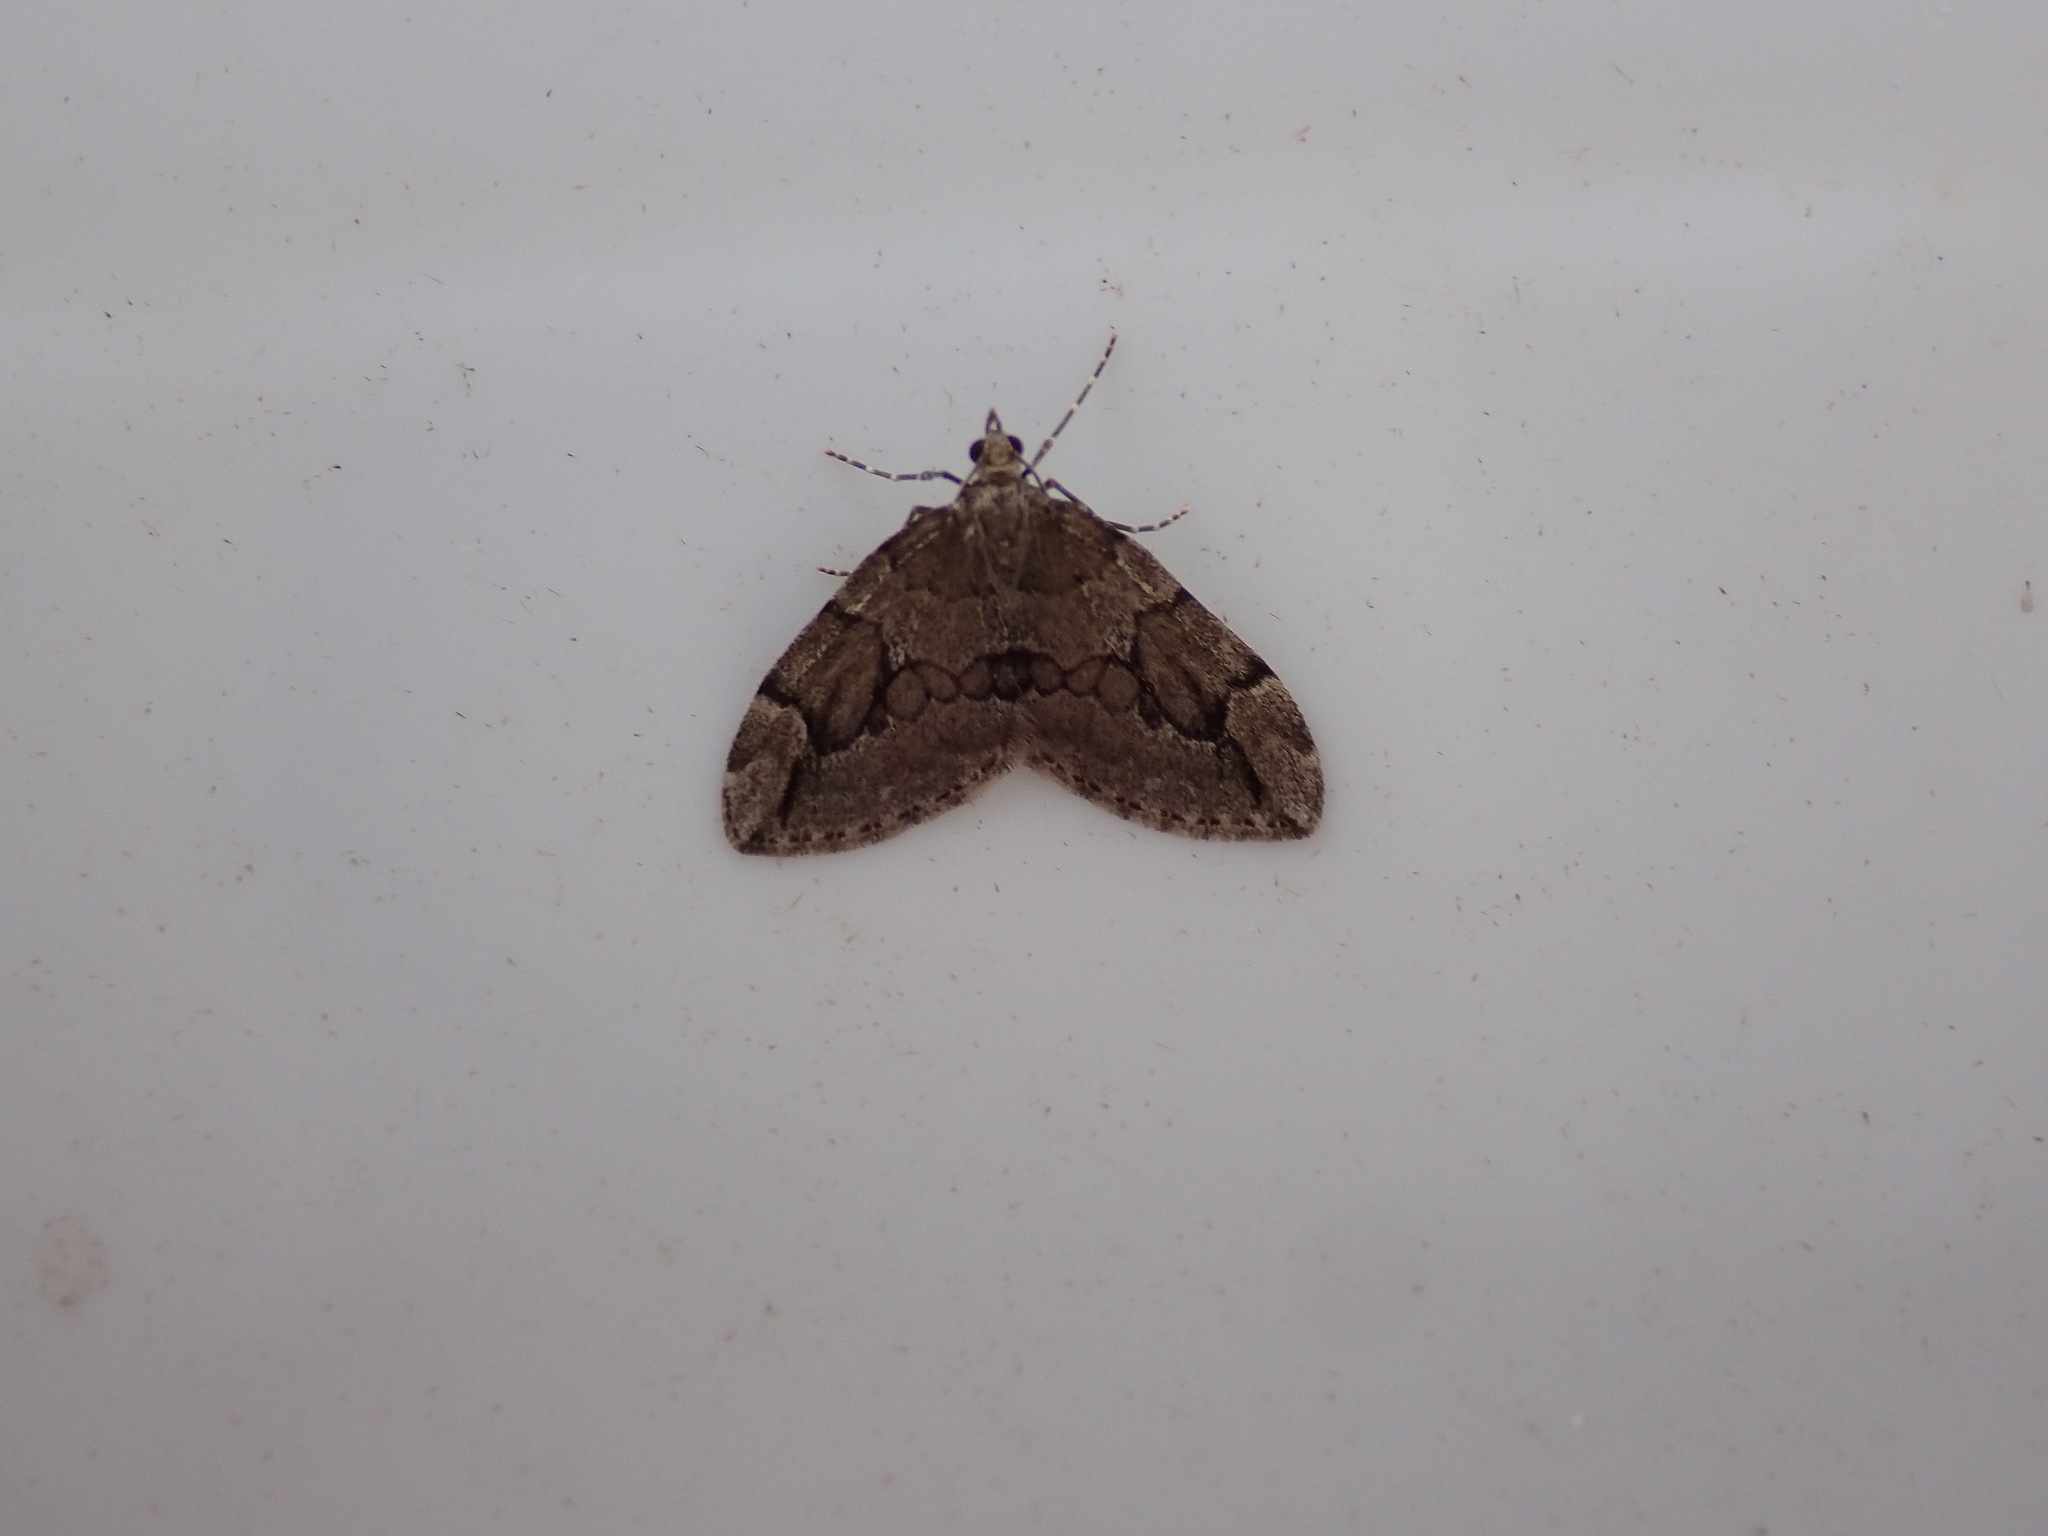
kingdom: Animalia
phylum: Arthropoda
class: Insecta
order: Lepidoptera
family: Geometridae
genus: Thera
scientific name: Thera juniperata
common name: Juniper carpet
